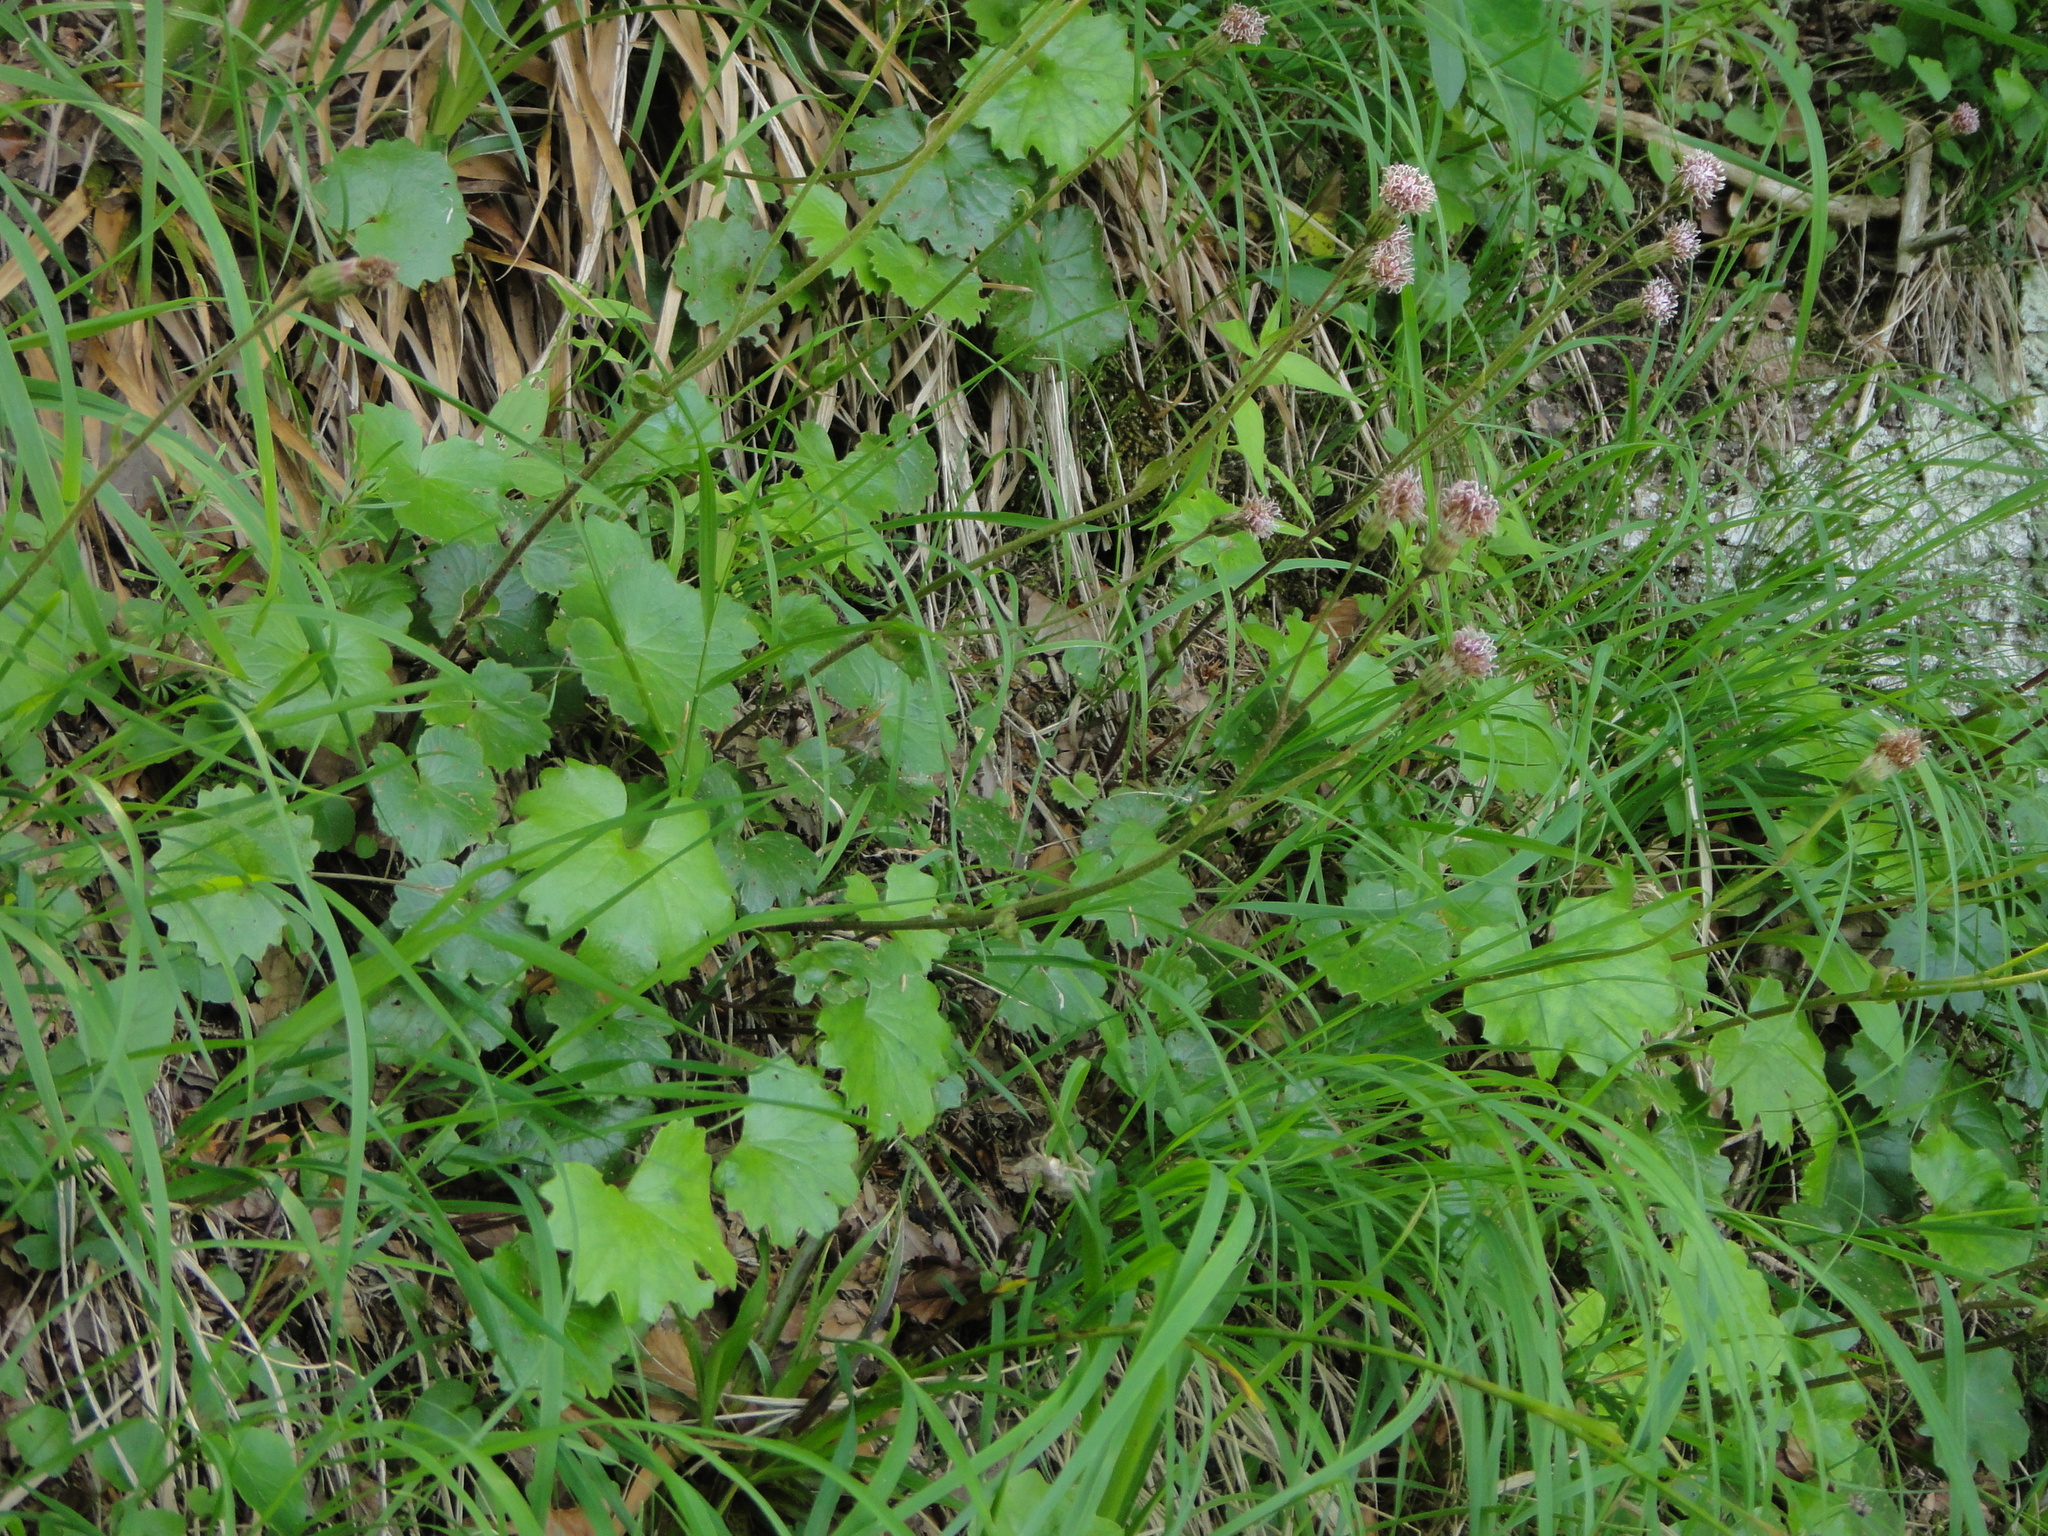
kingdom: Plantae
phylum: Tracheophyta
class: Magnoliopsida
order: Asterales
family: Asteraceae
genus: Homogyne
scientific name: Homogyne sylvestris
